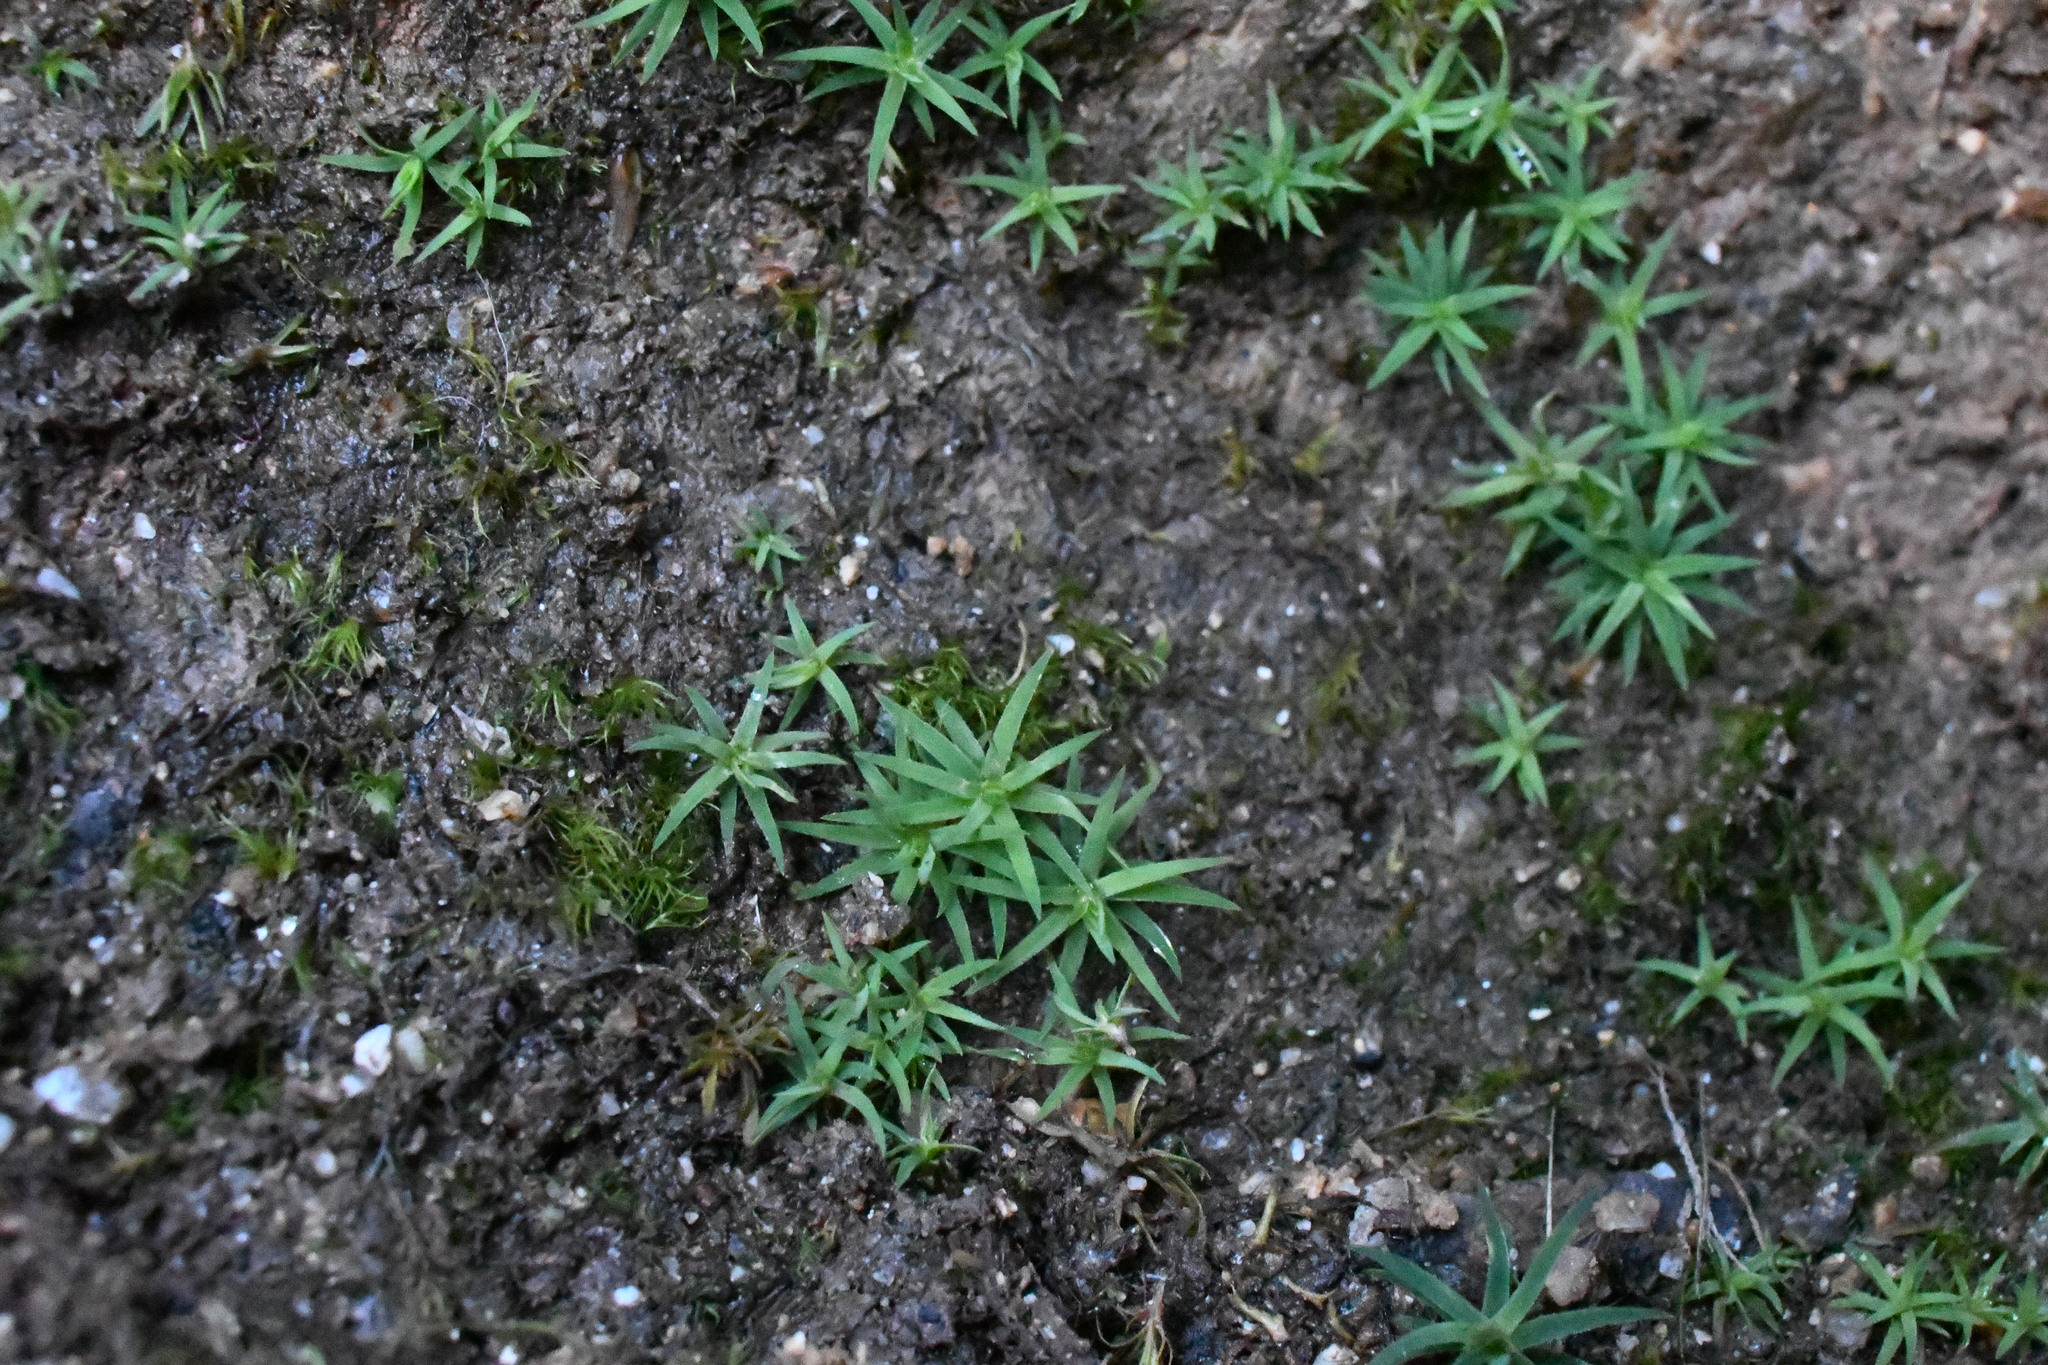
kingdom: Plantae
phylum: Bryophyta
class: Polytrichopsida
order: Polytrichales
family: Polytrichaceae
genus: Dawsonia
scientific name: Dawsonia longiseta
